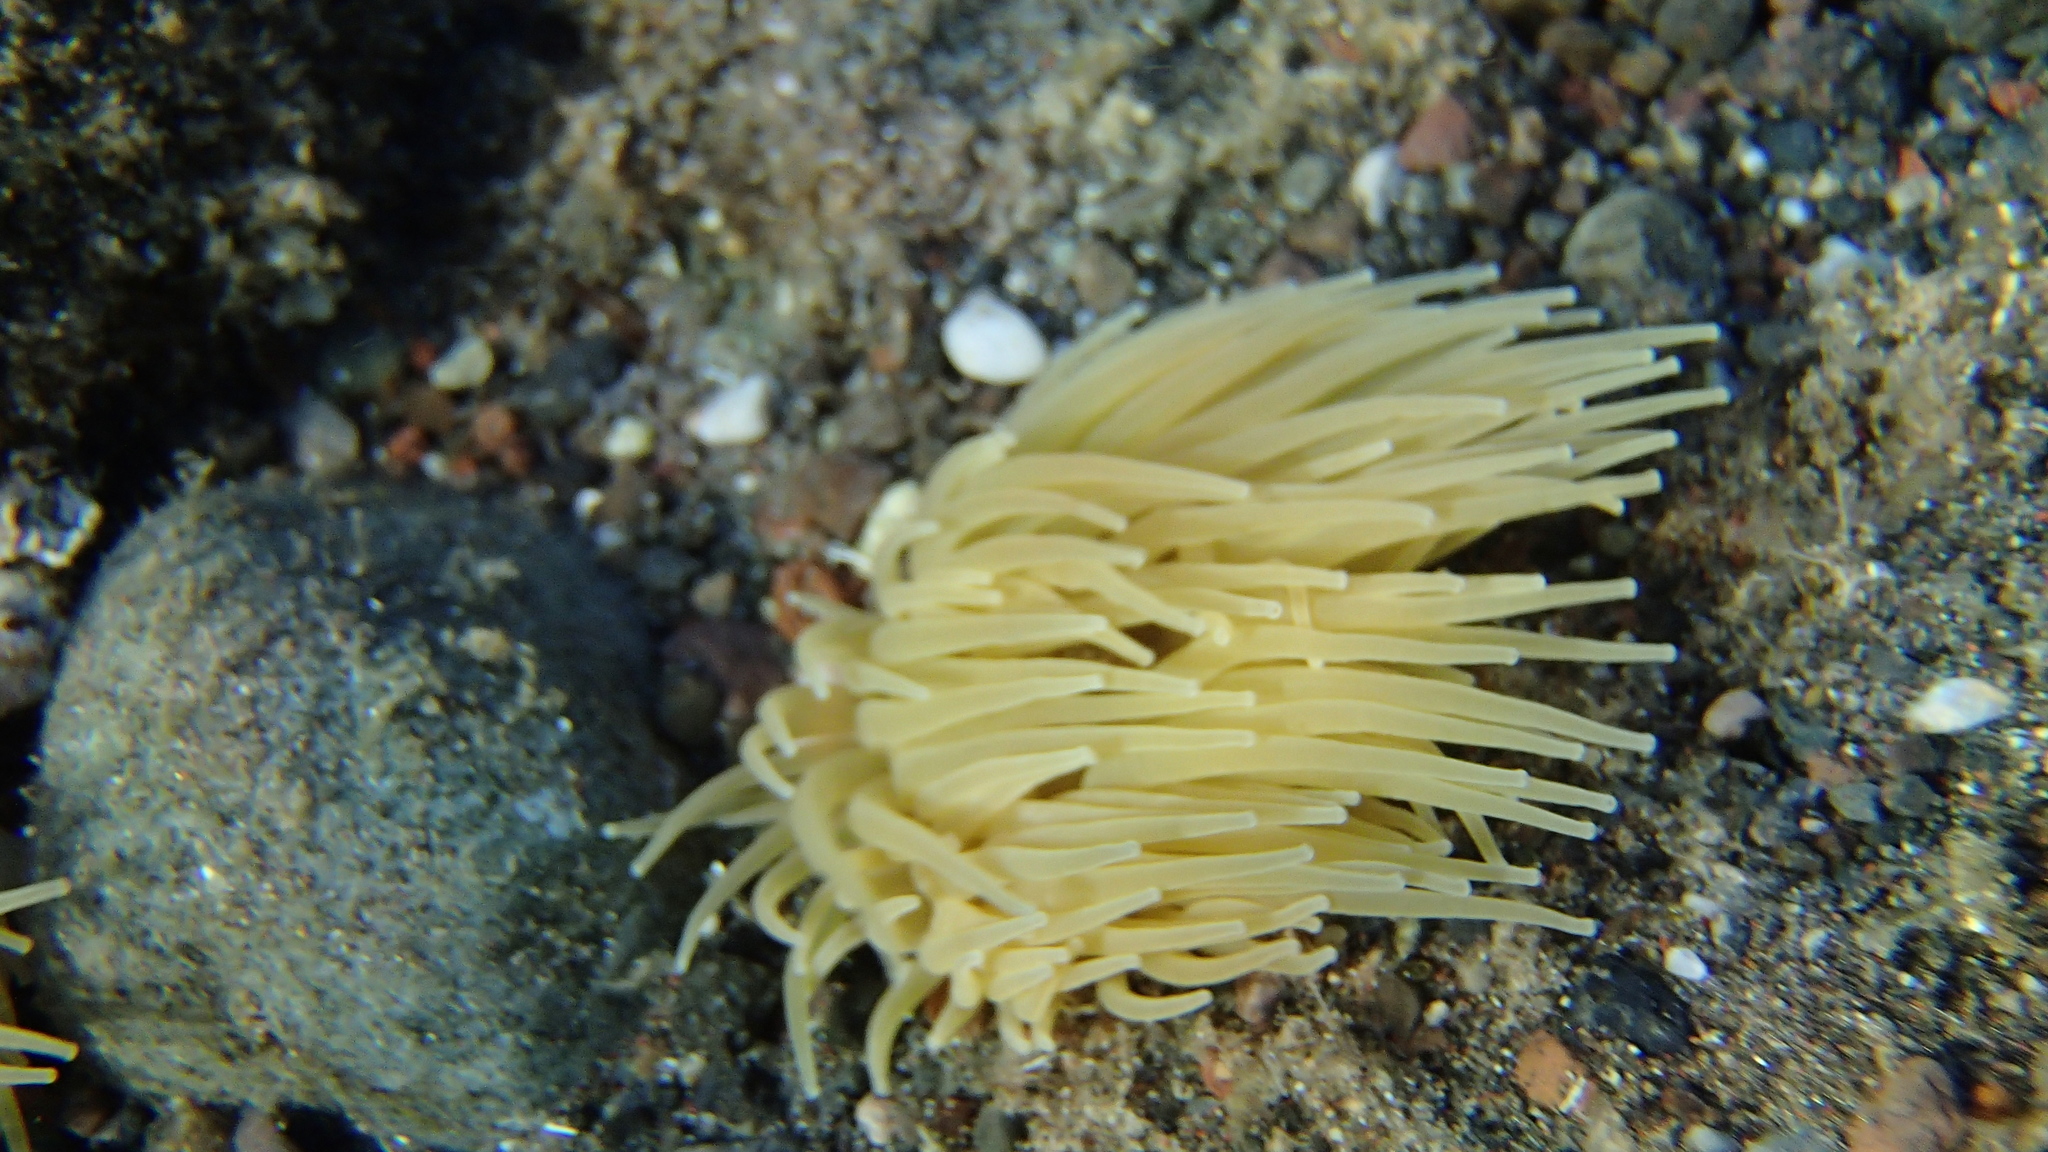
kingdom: Animalia
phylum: Cnidaria
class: Anthozoa
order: Actiniaria
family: Actiniidae
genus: Anemonia
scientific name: Anemonia viridis
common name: Snakelocks anemone
